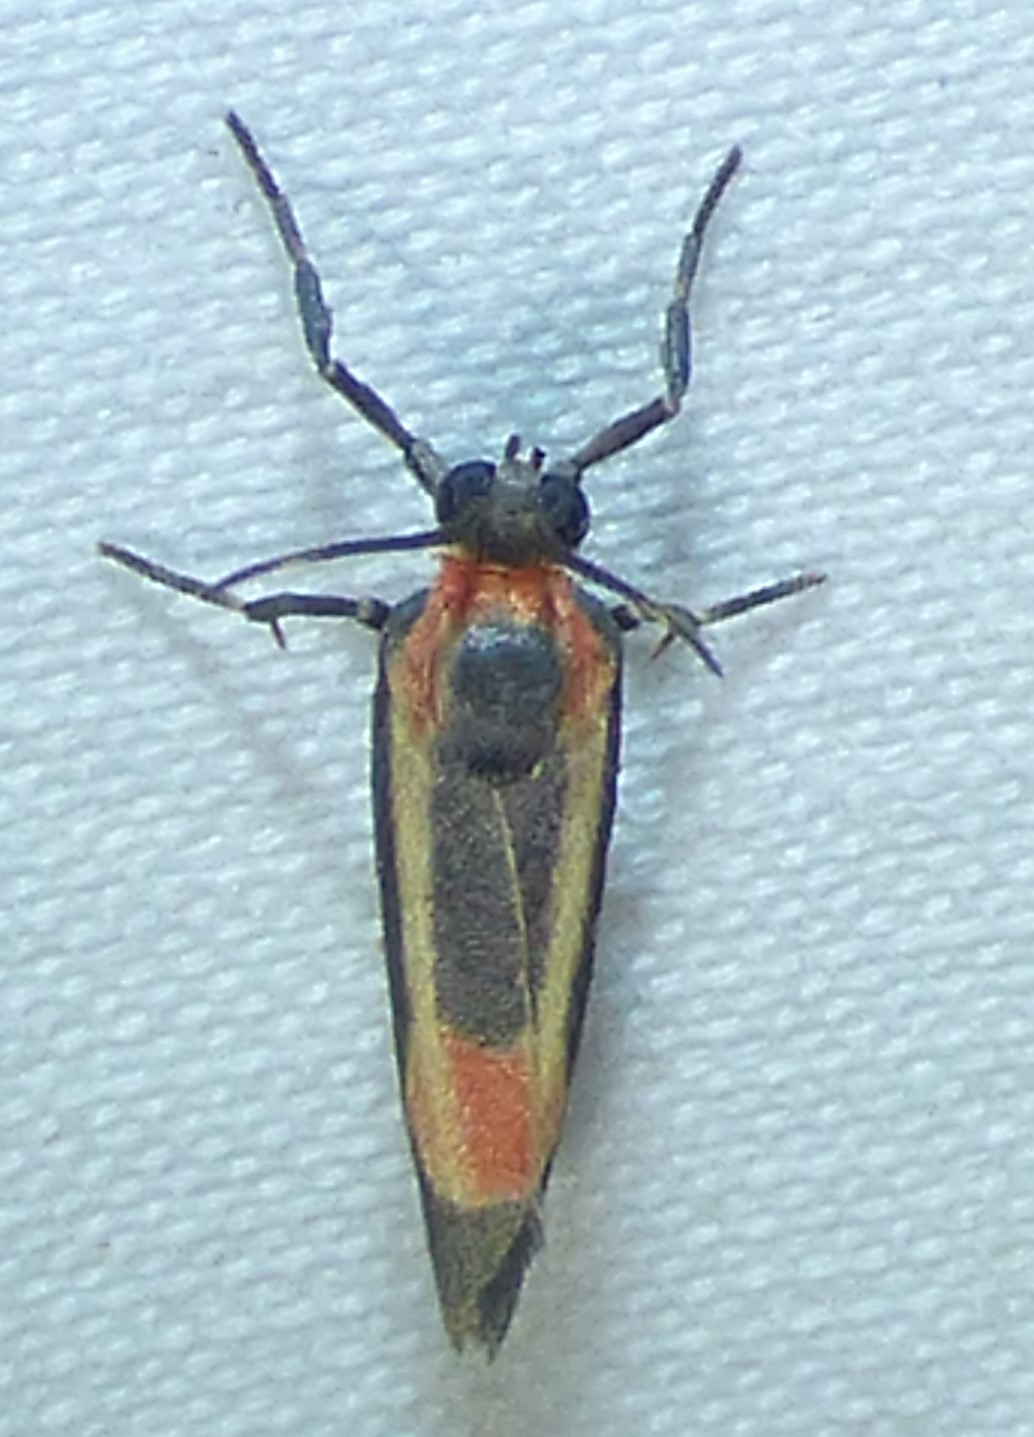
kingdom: Animalia
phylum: Arthropoda
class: Insecta
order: Lepidoptera
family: Erebidae
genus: Cisthene
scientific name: Cisthene packardii
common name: Packard's lichen moth
